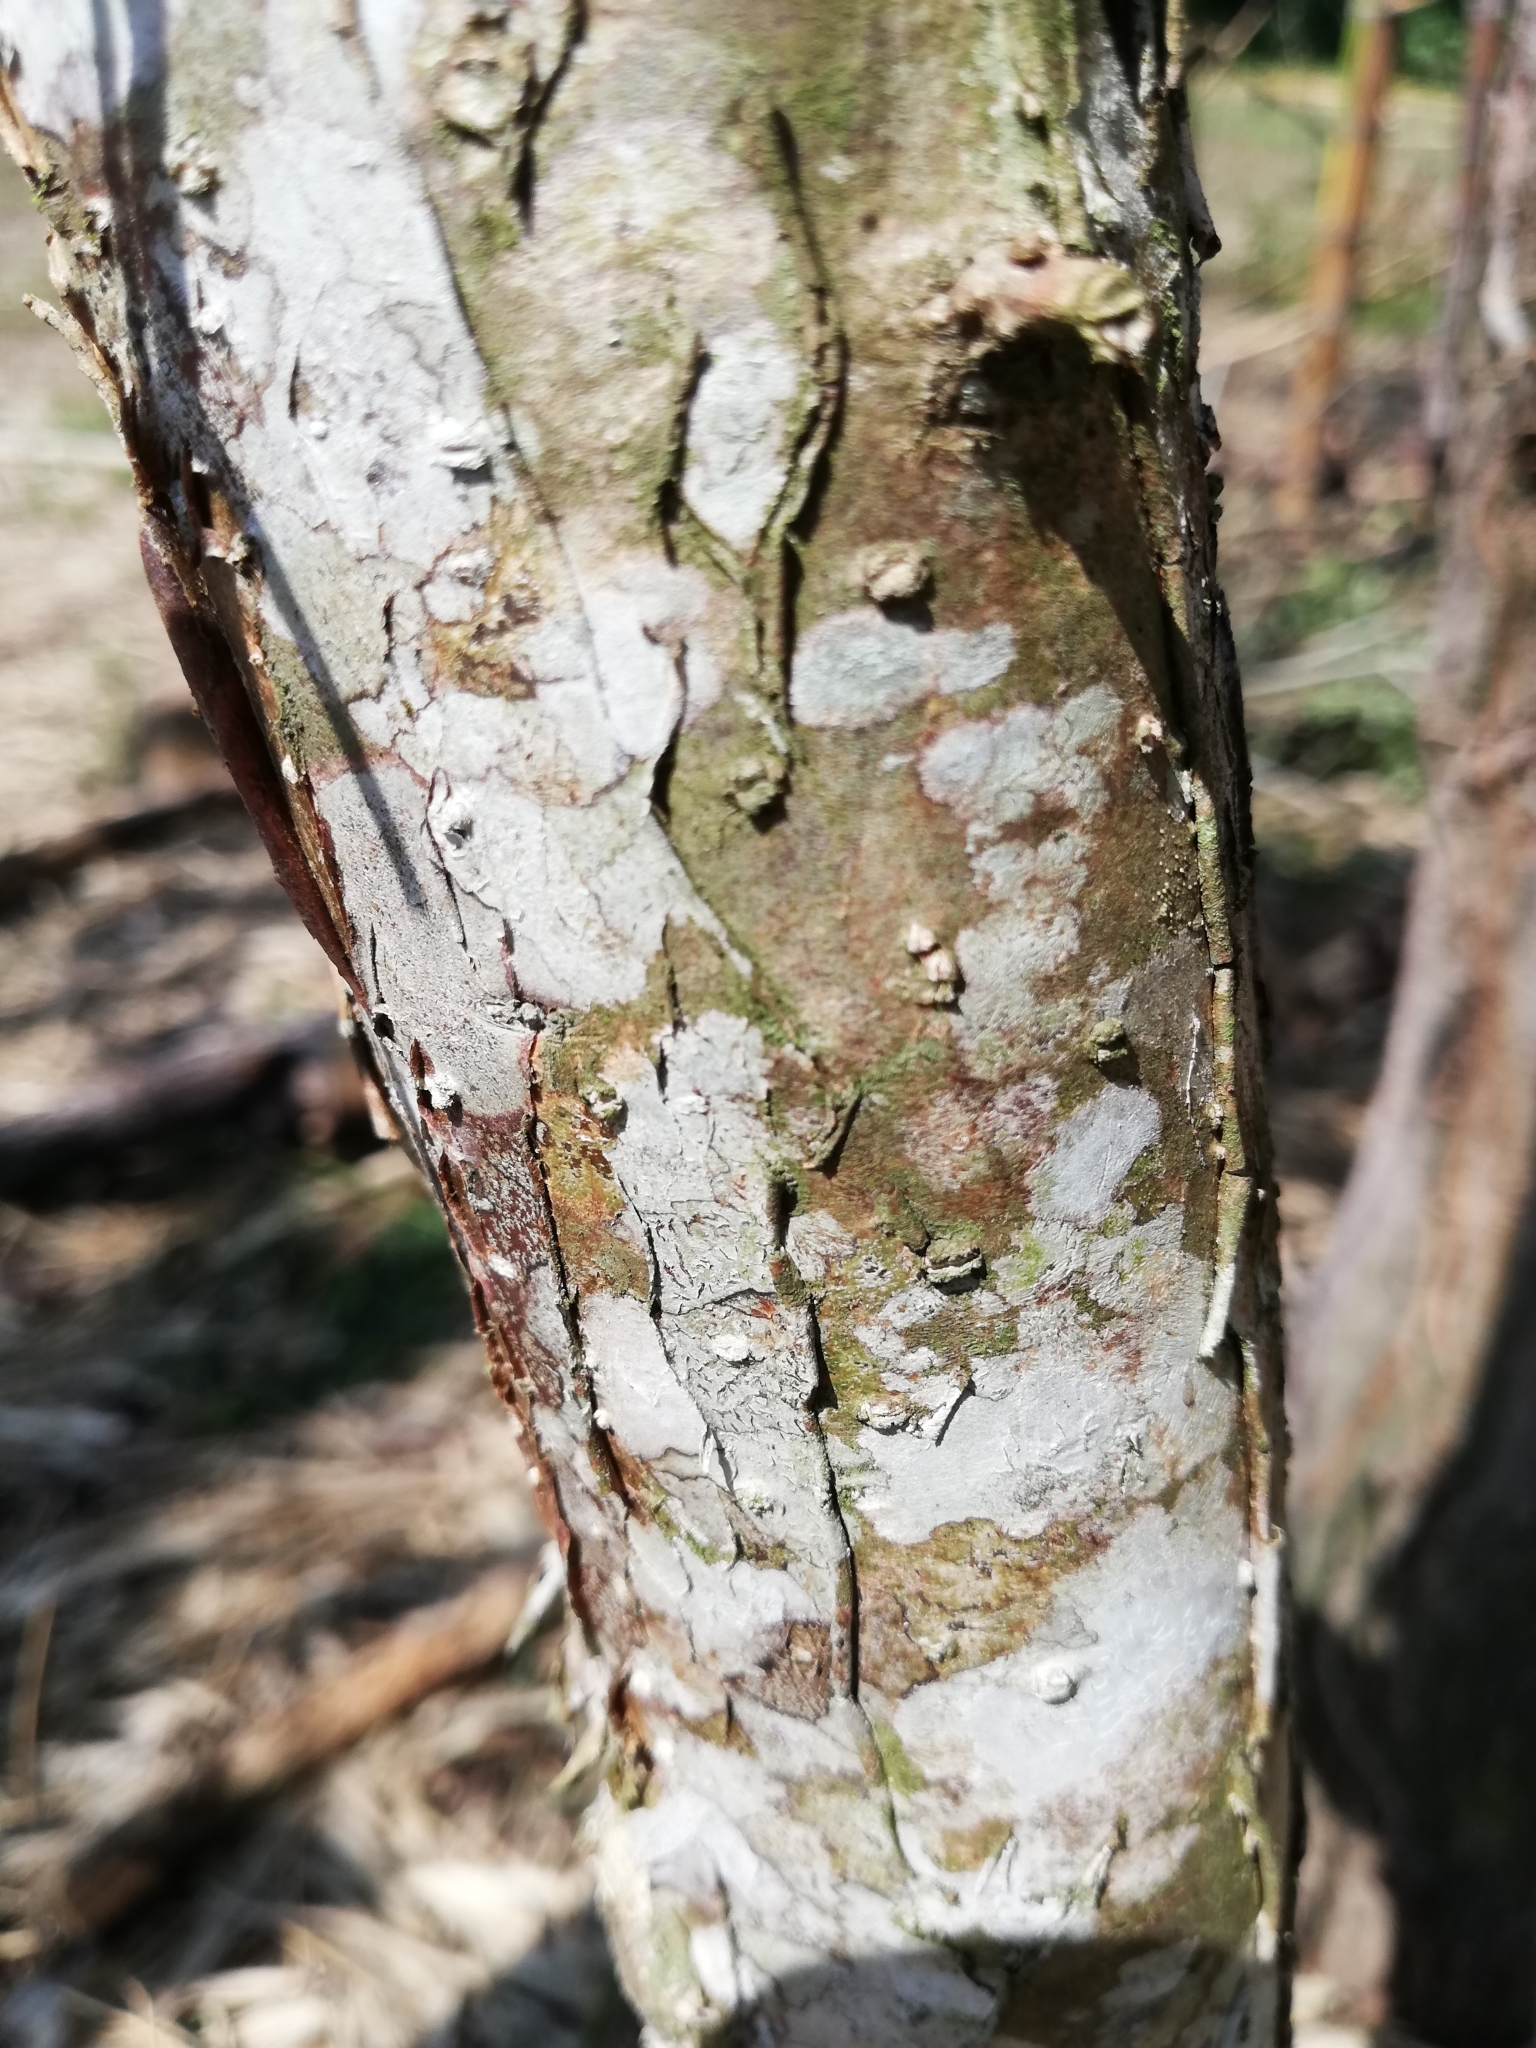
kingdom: Plantae
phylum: Tracheophyta
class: Magnoliopsida
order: Fabales
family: Fabaceae
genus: Diphysa
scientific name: Diphysa americana
